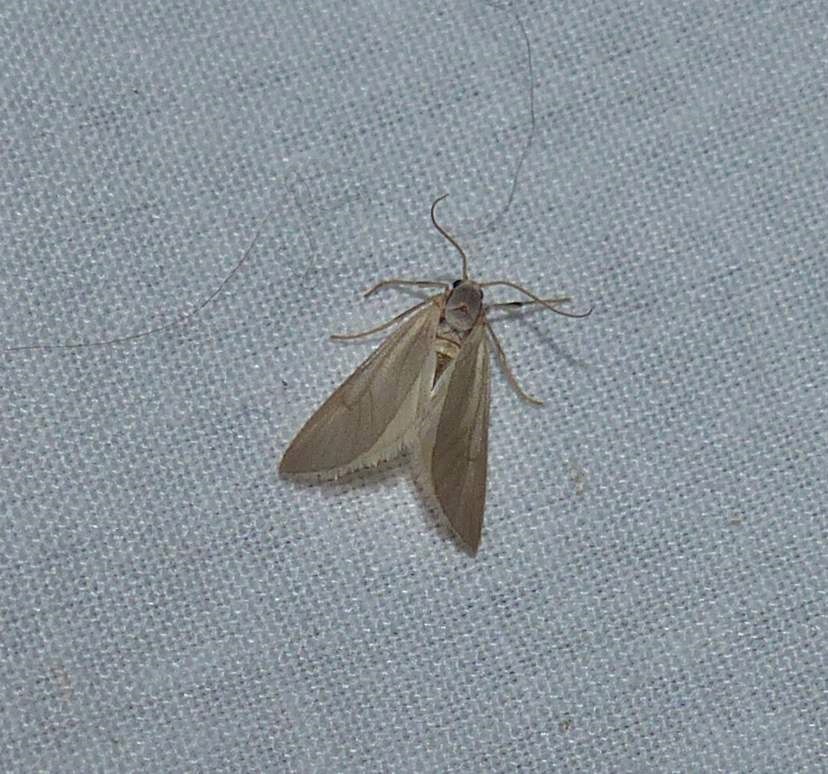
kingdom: Animalia
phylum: Arthropoda
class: Insecta
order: Lepidoptera
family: Crambidae
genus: Acentria
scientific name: Acentria ephemerella
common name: European water moth
